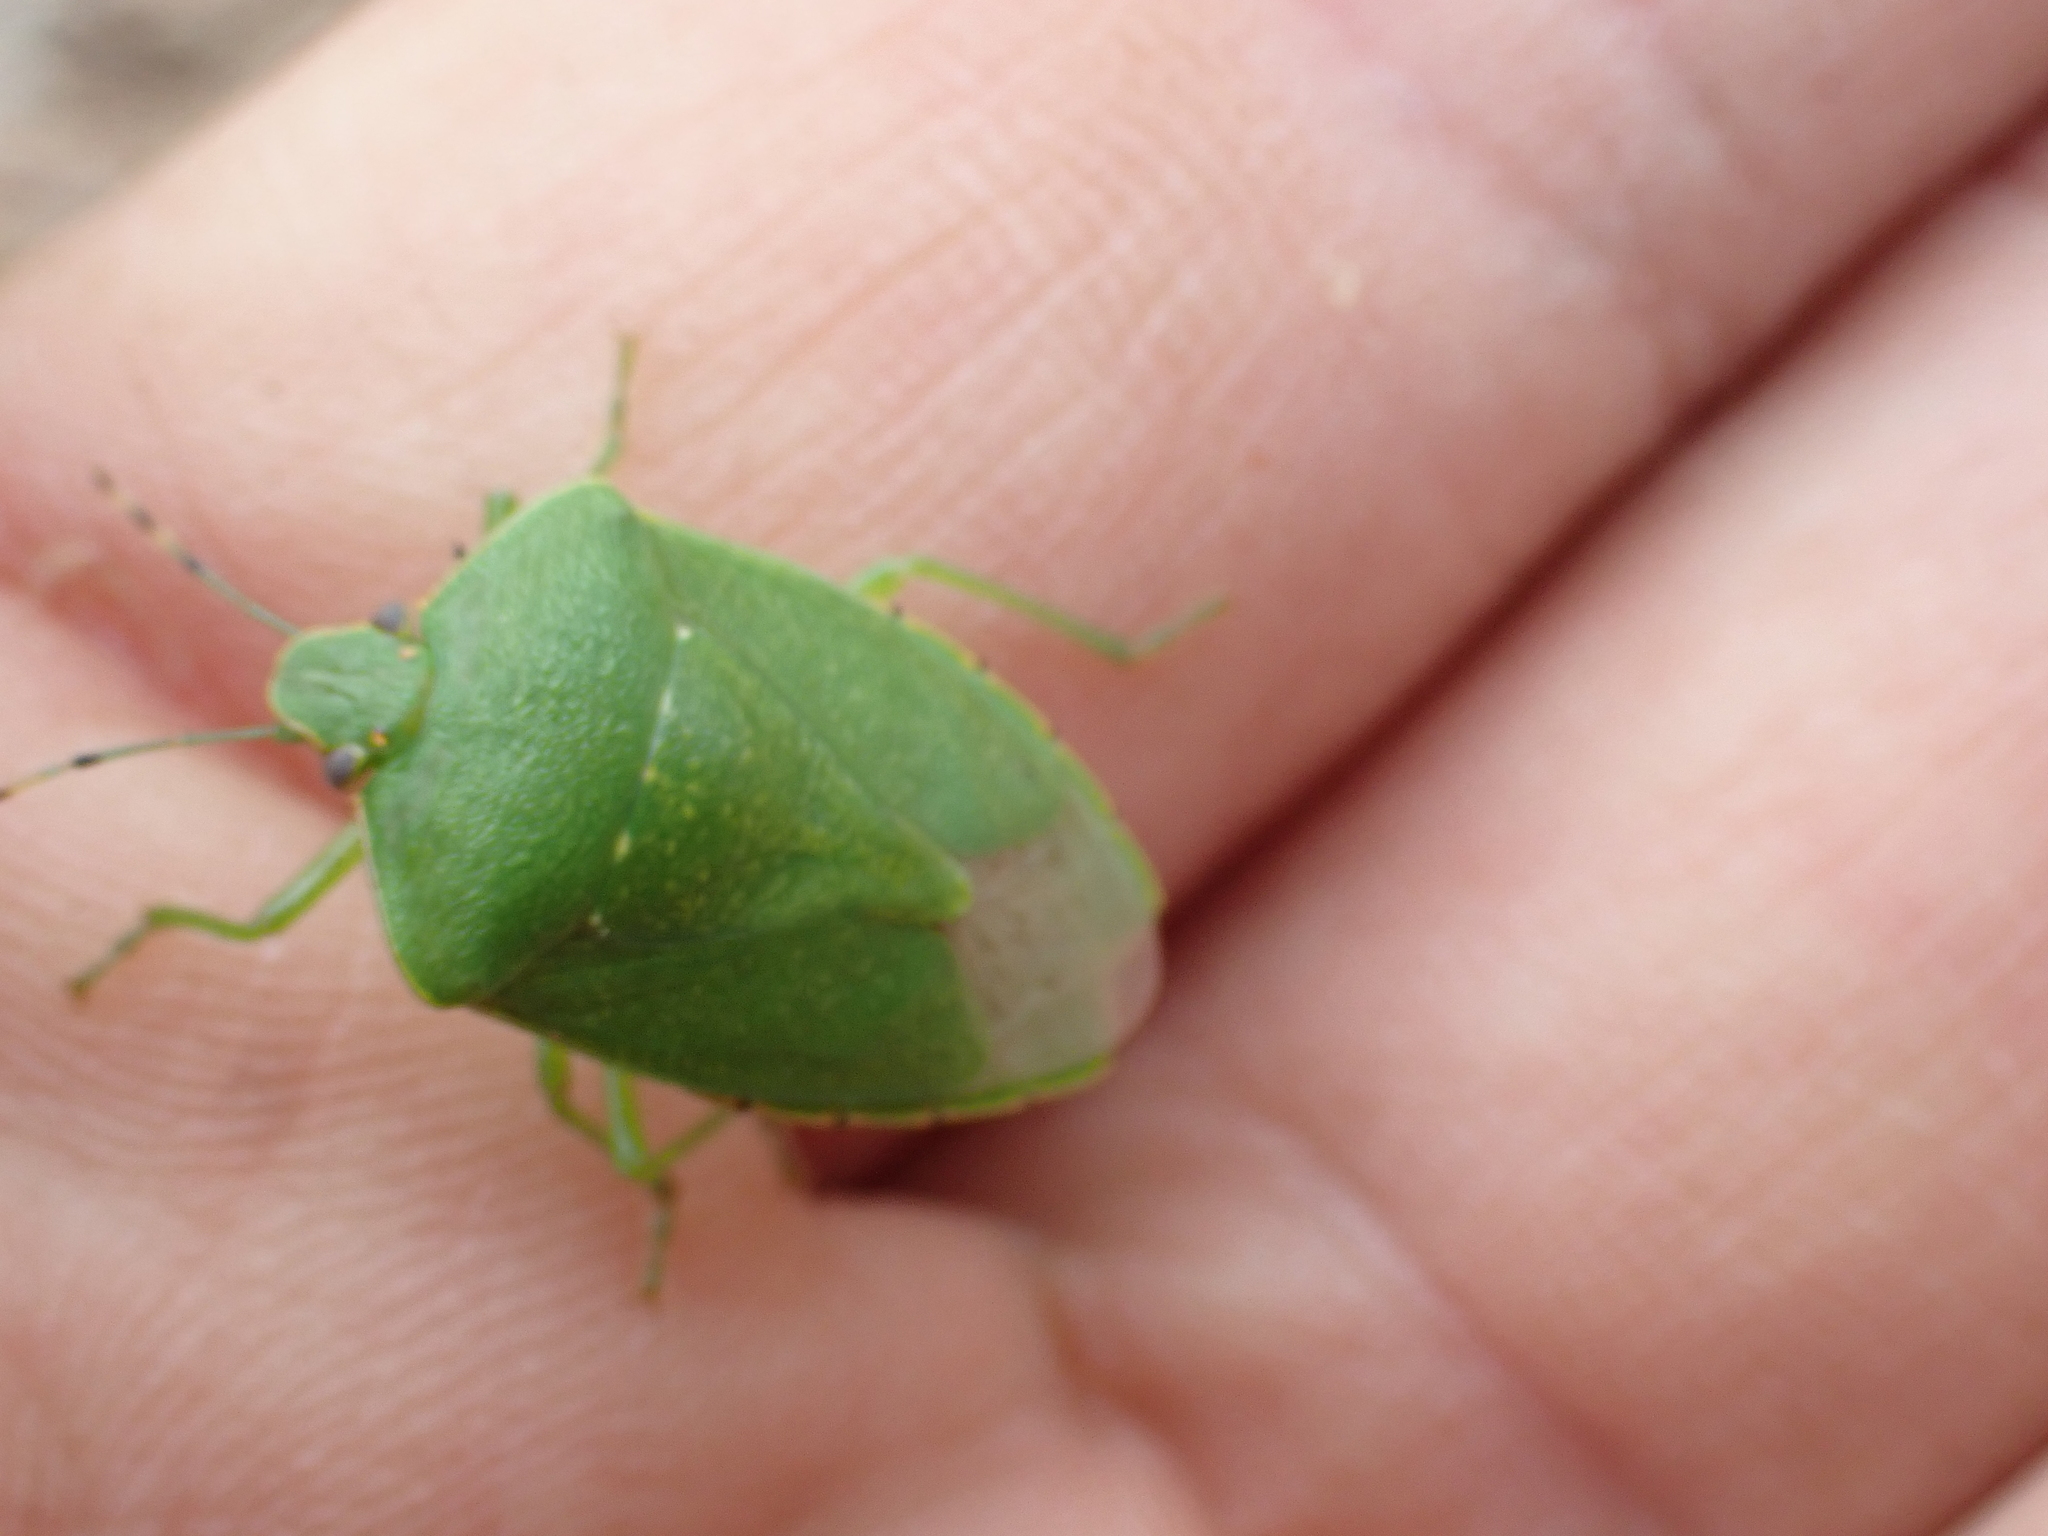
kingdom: Animalia
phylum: Arthropoda
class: Insecta
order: Hemiptera
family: Pentatomidae
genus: Chinavia
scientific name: Chinavia hilaris
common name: Green stink bug
